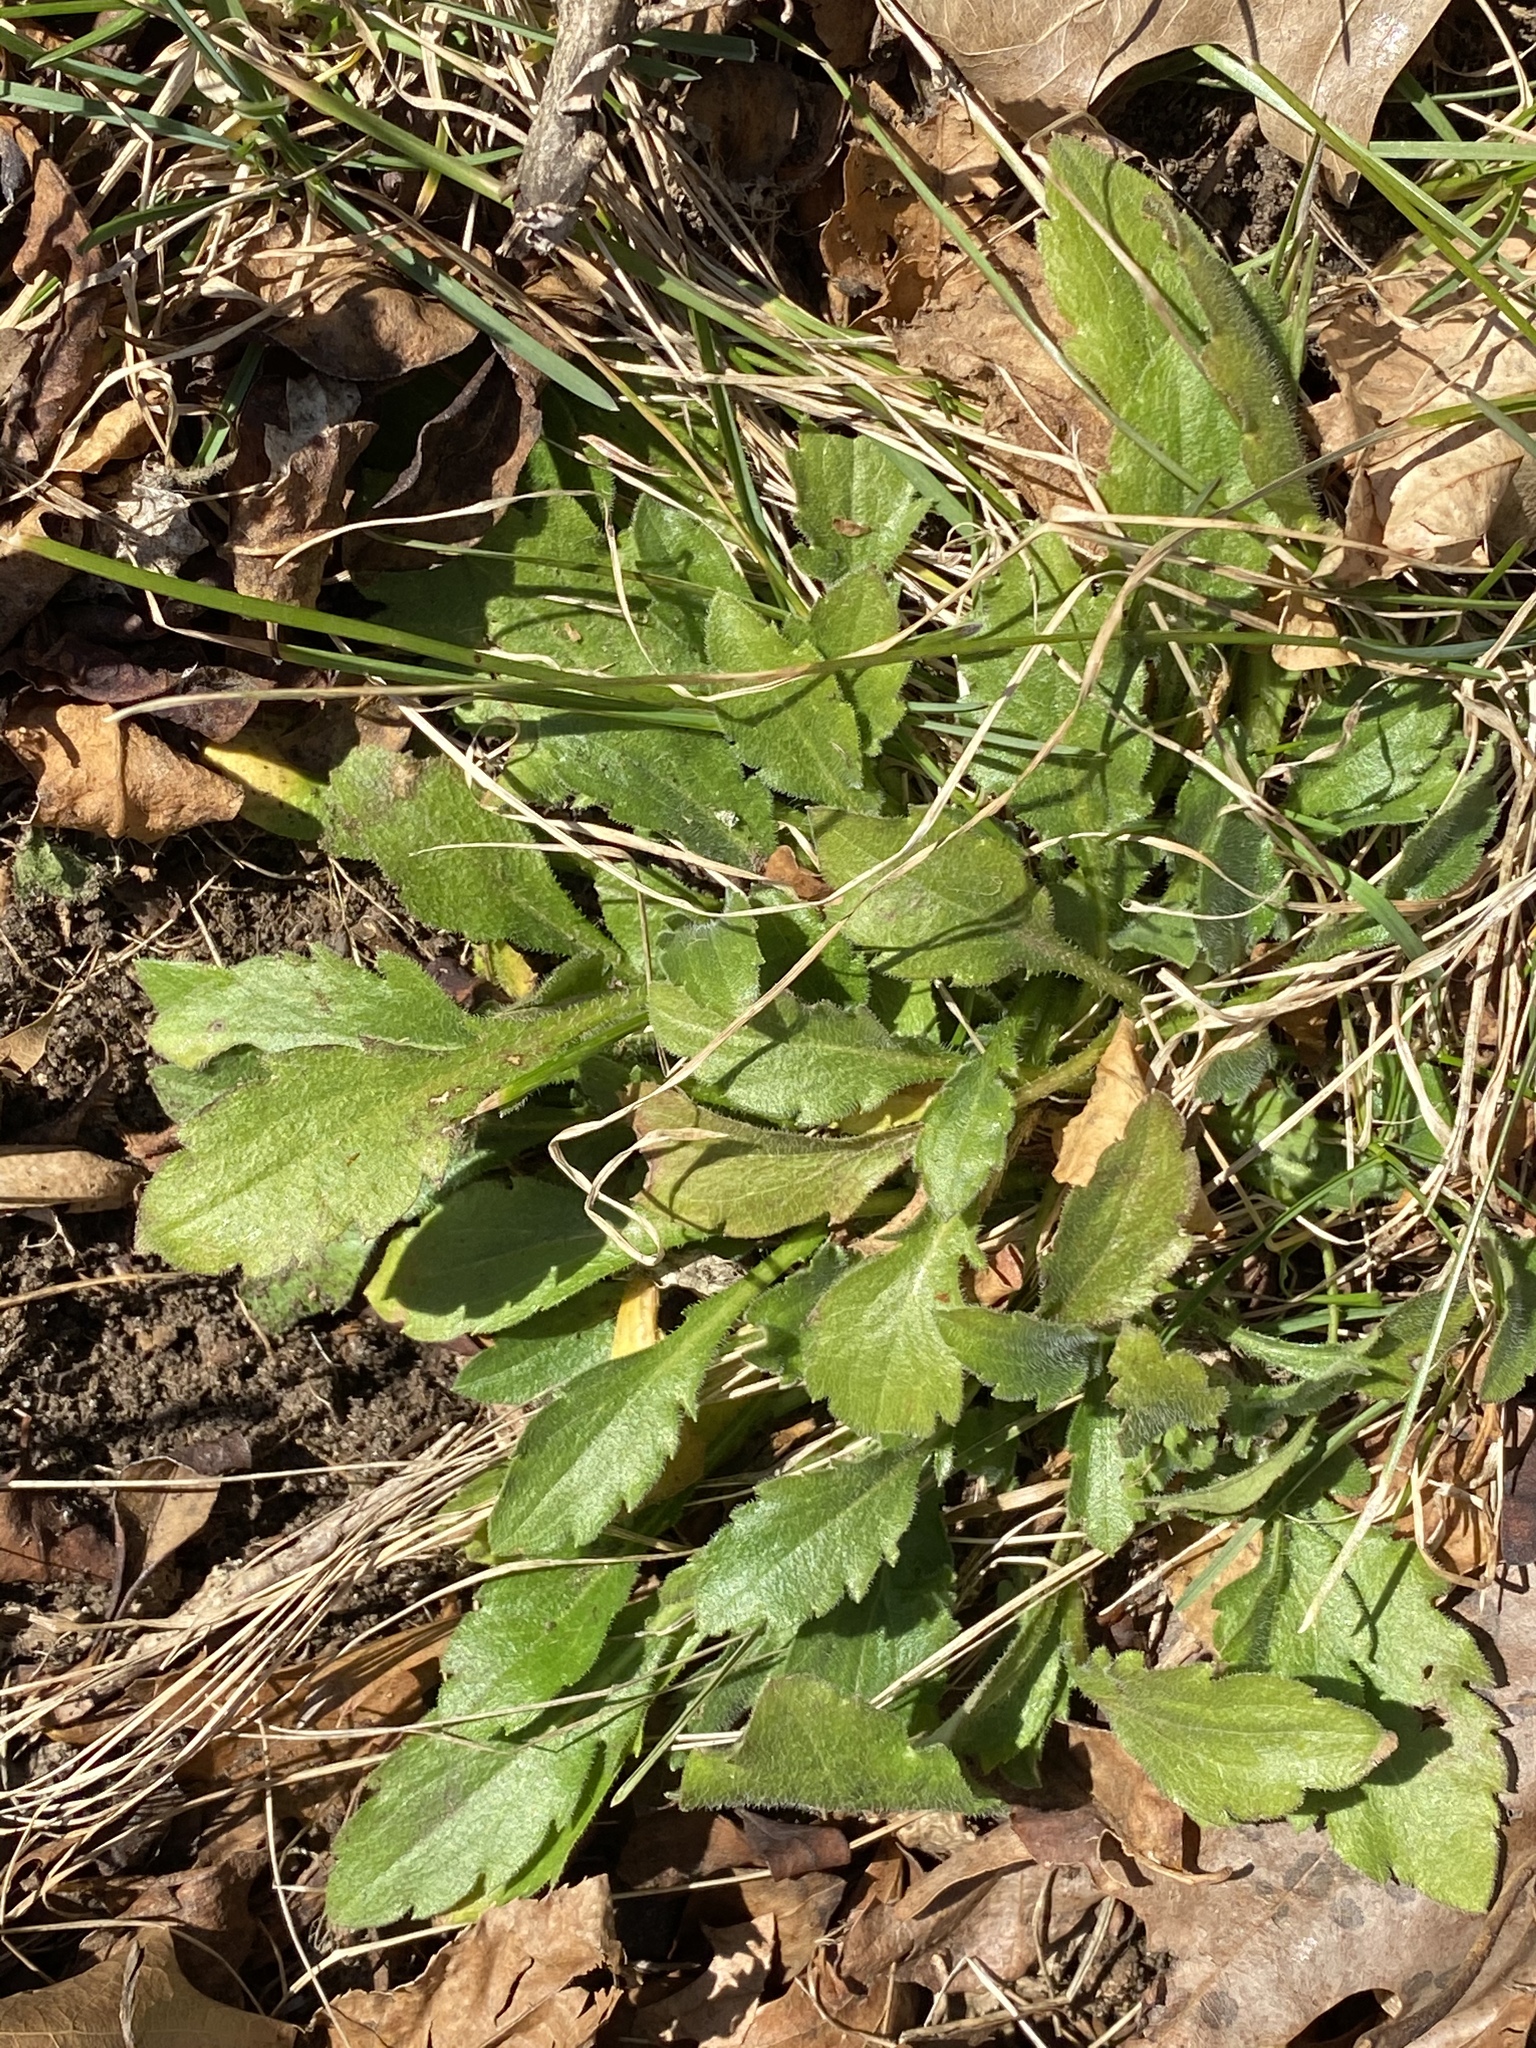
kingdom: Plantae
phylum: Tracheophyta
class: Magnoliopsida
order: Asterales
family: Asteraceae
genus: Erigeron
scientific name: Erigeron canadensis
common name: Canadian fleabane
